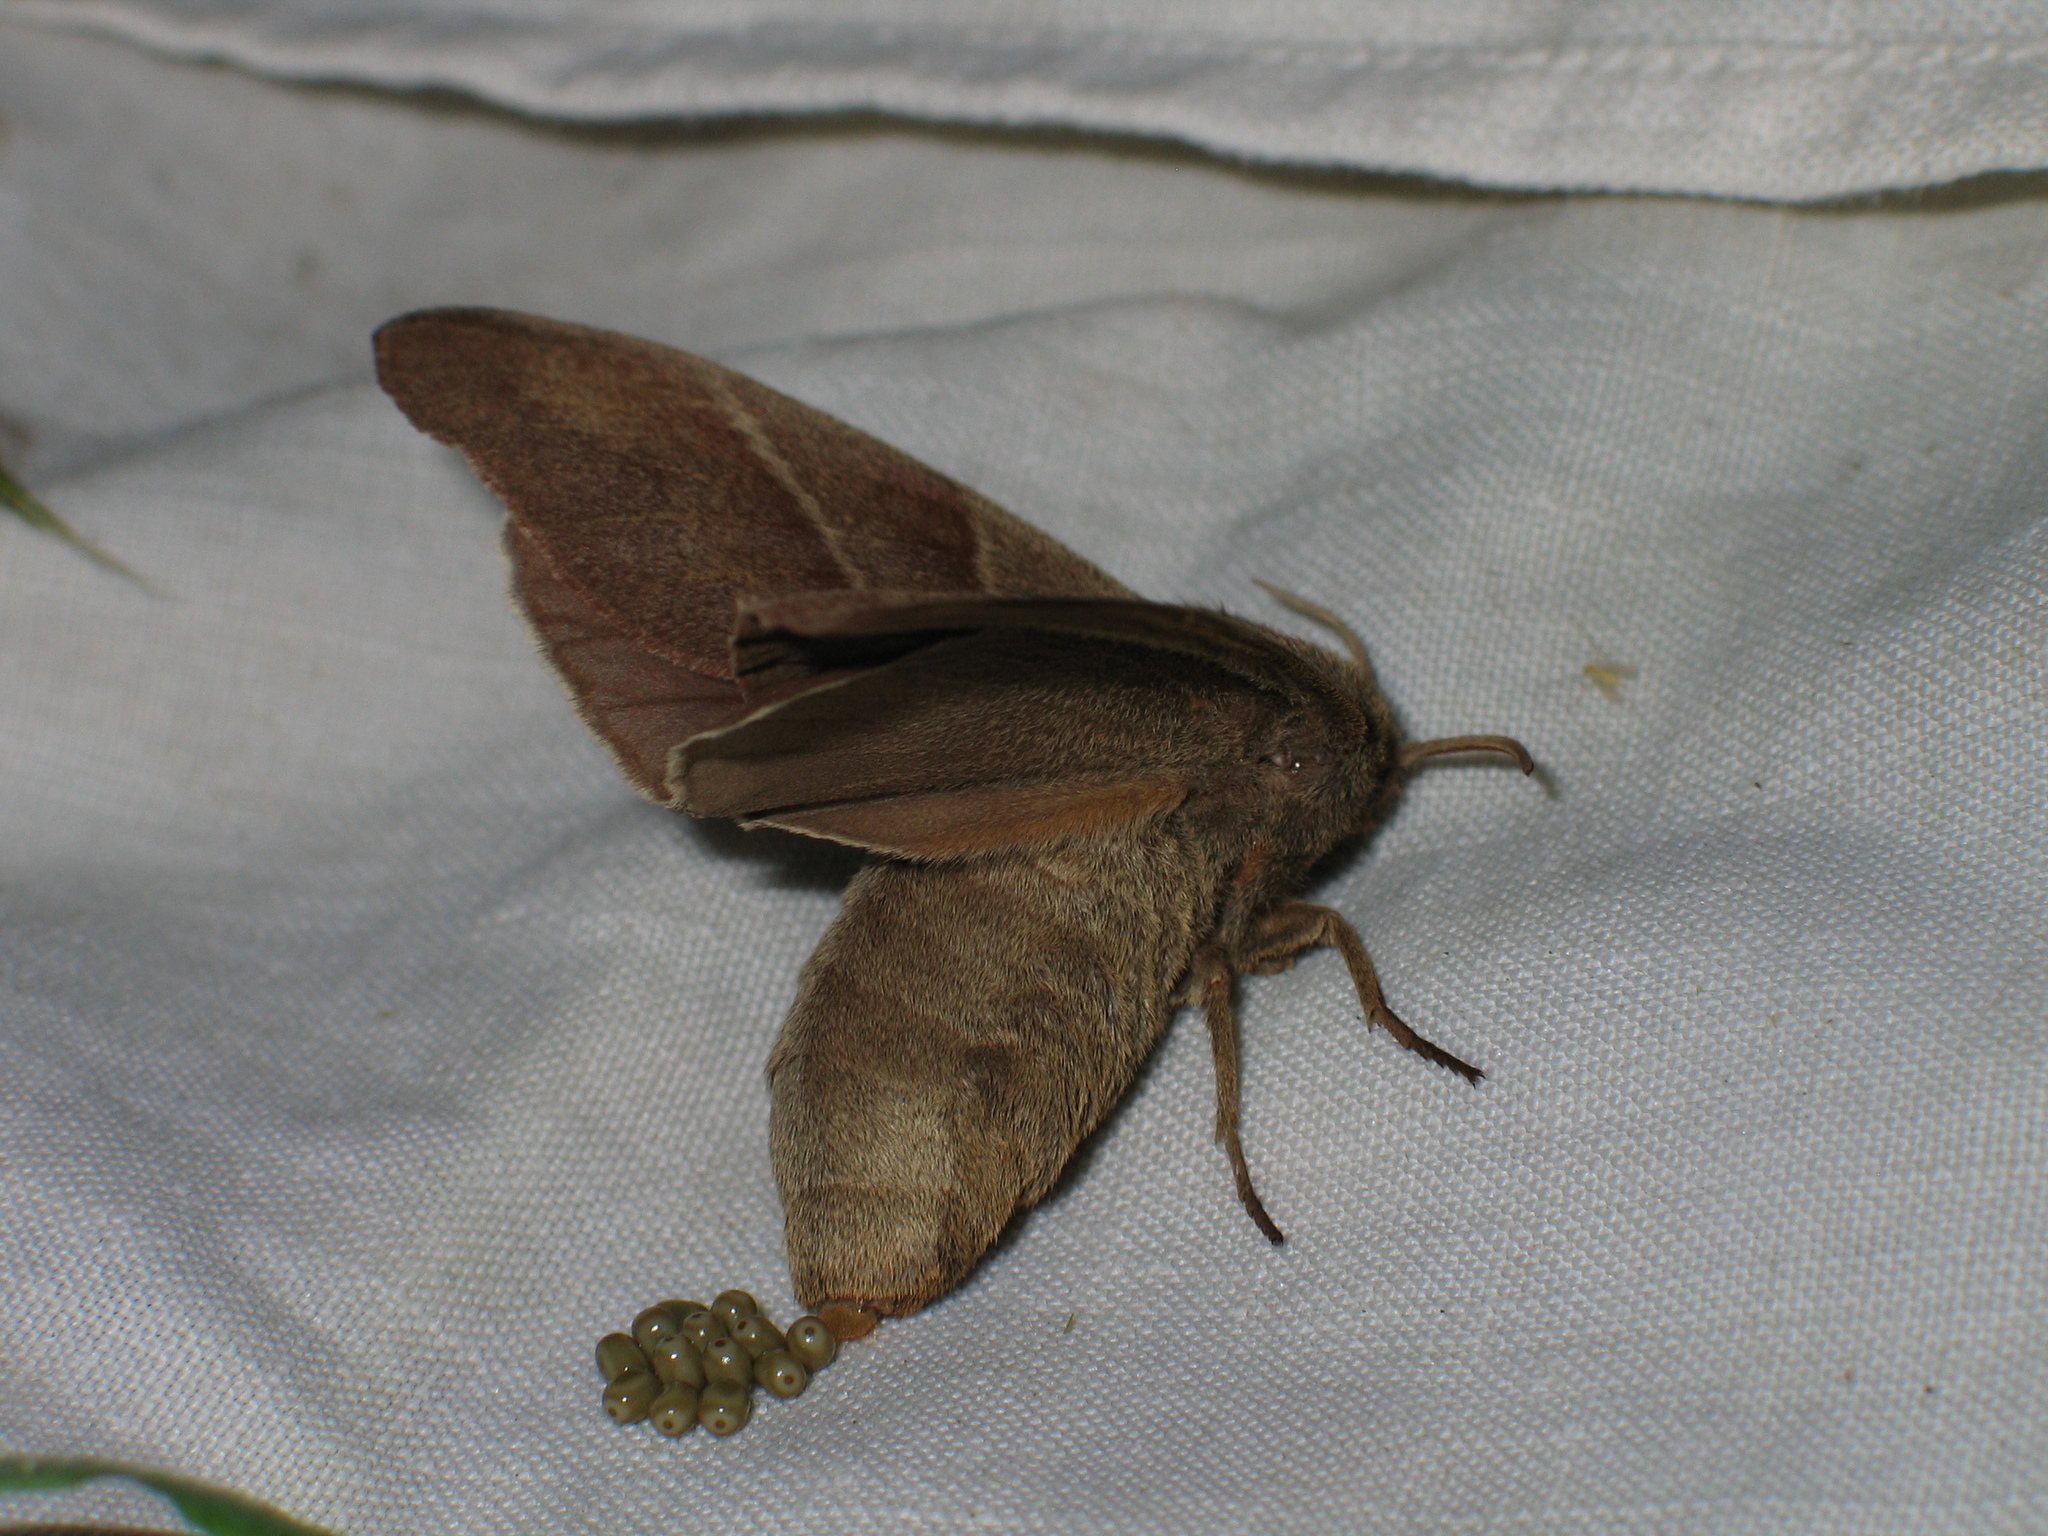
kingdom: Animalia
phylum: Arthropoda
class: Insecta
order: Lepidoptera
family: Lasiocampidae
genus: Macrothylacia
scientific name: Macrothylacia rubi
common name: Fox moth
